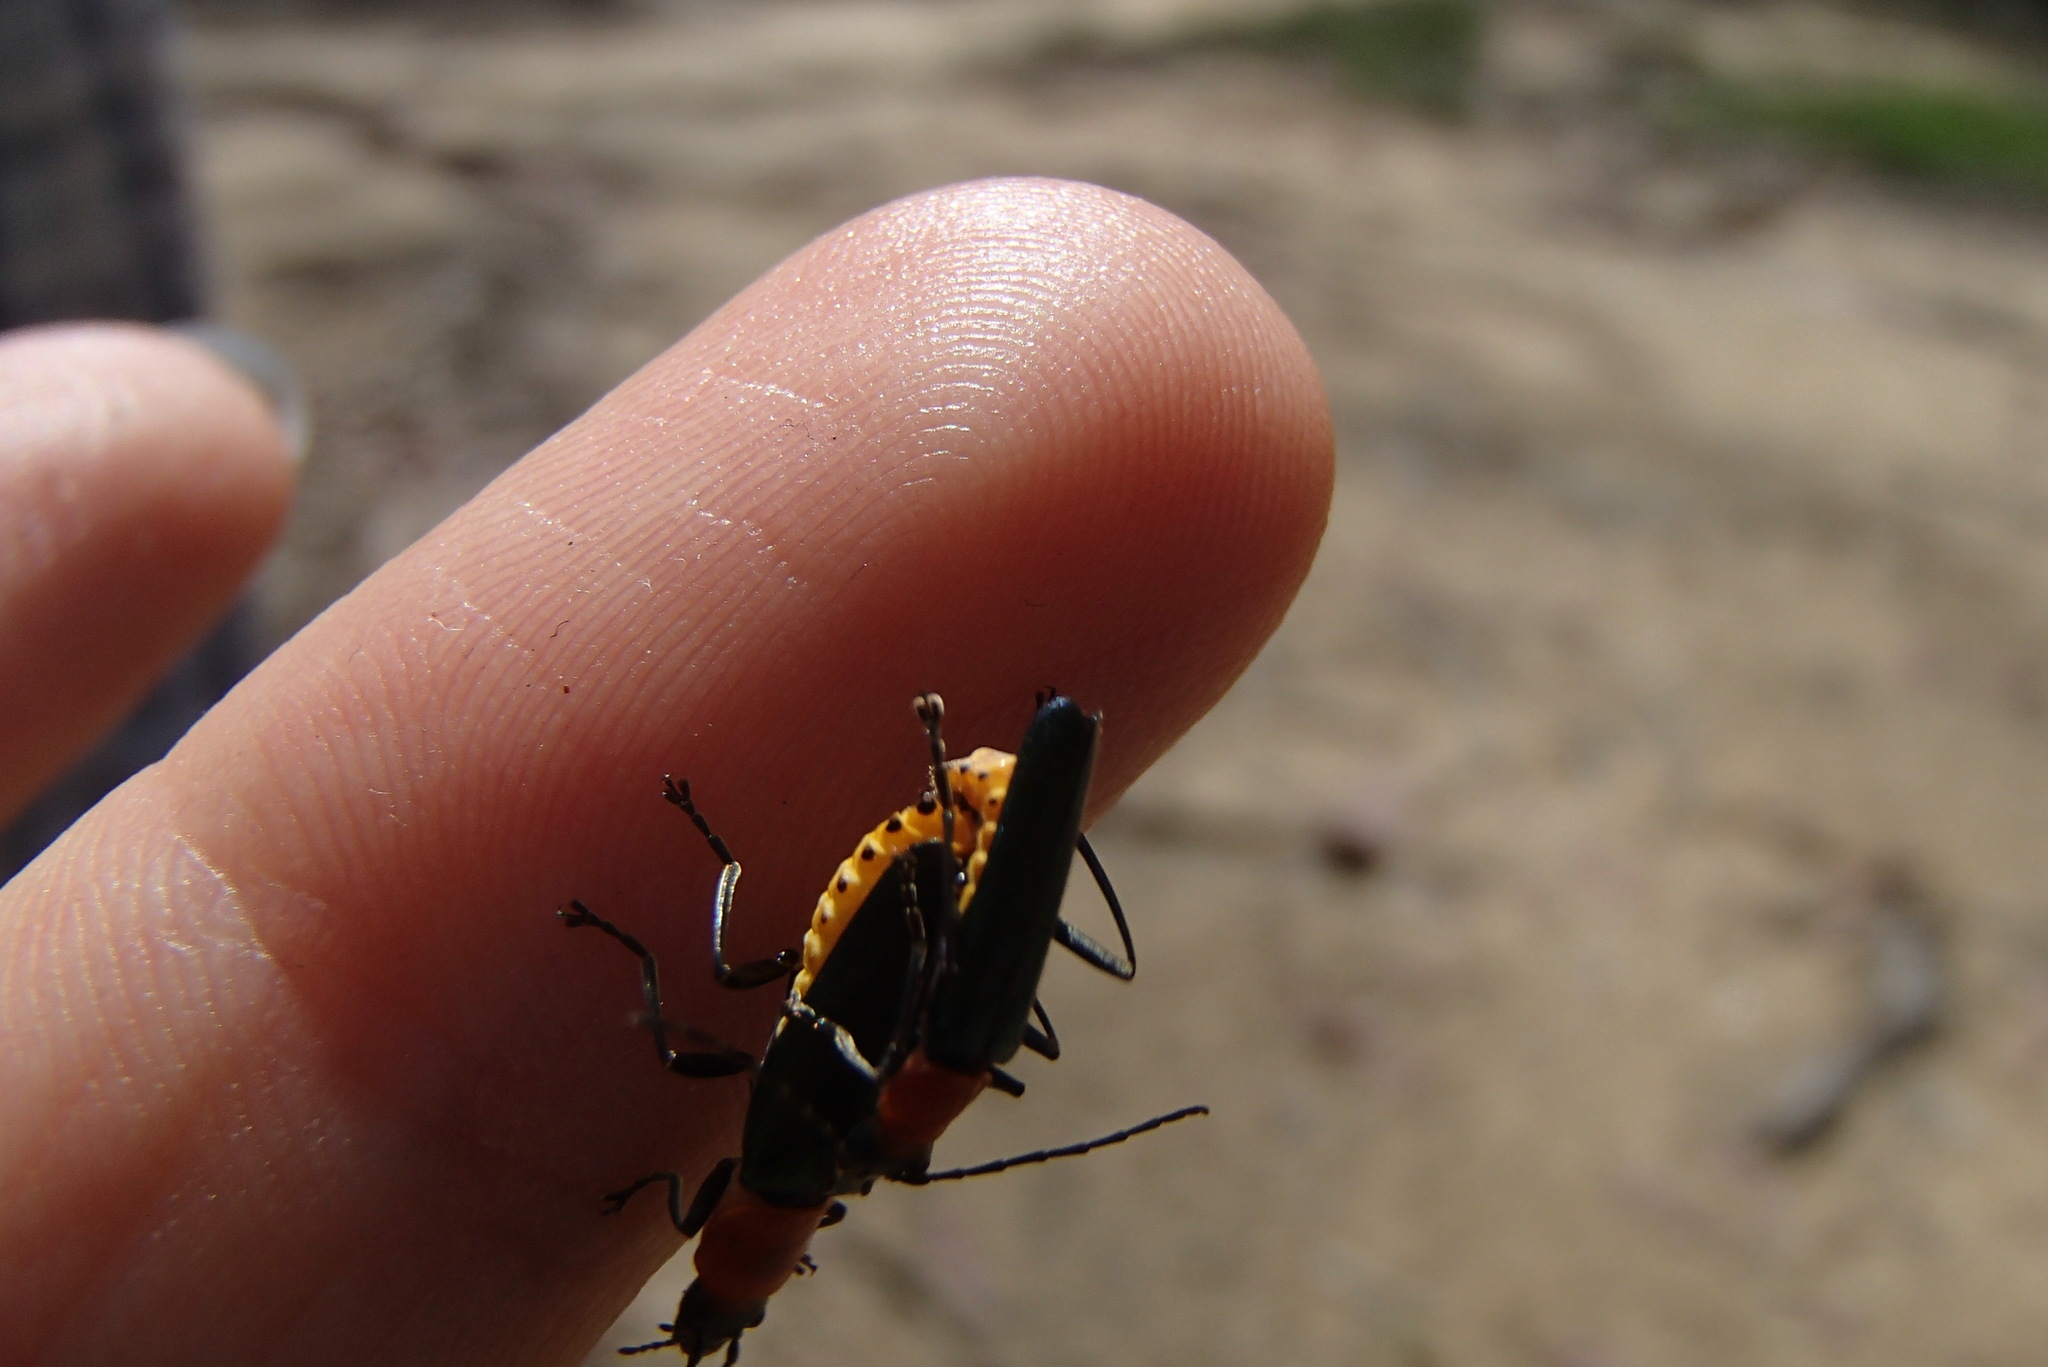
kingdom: Animalia
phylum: Arthropoda
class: Insecta
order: Coleoptera
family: Cantharidae
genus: Chauliognathus
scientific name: Chauliognathus
